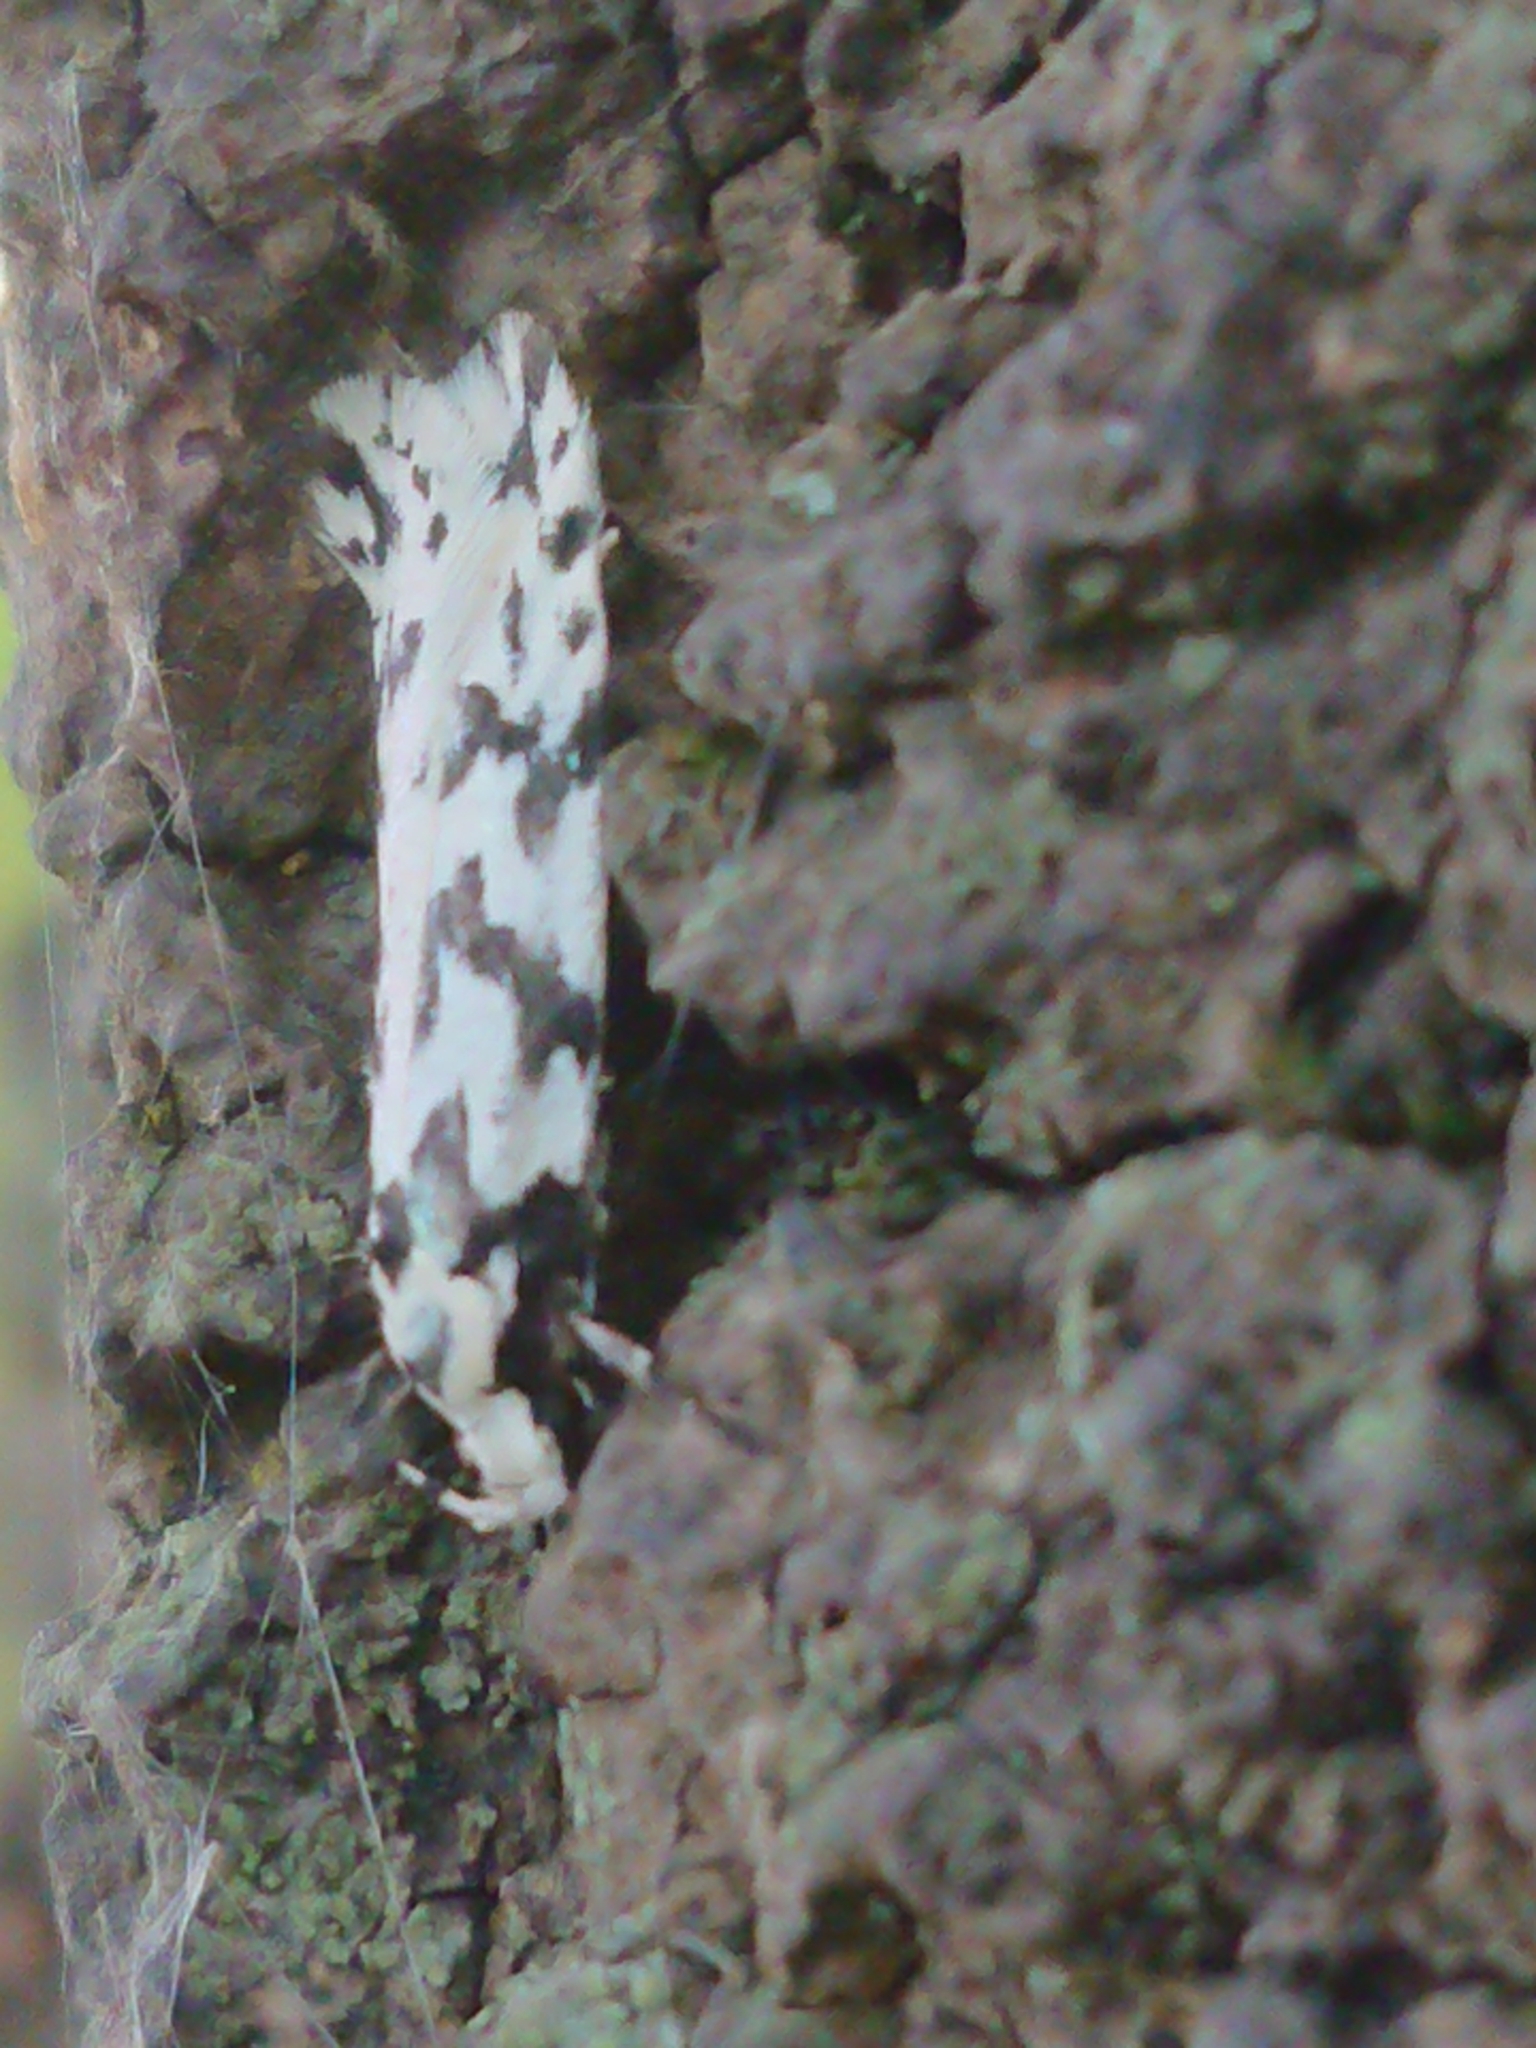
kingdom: Animalia
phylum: Arthropoda
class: Insecta
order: Lepidoptera
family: Oecophoridae
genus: Izatha
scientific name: Izatha katadiktya
